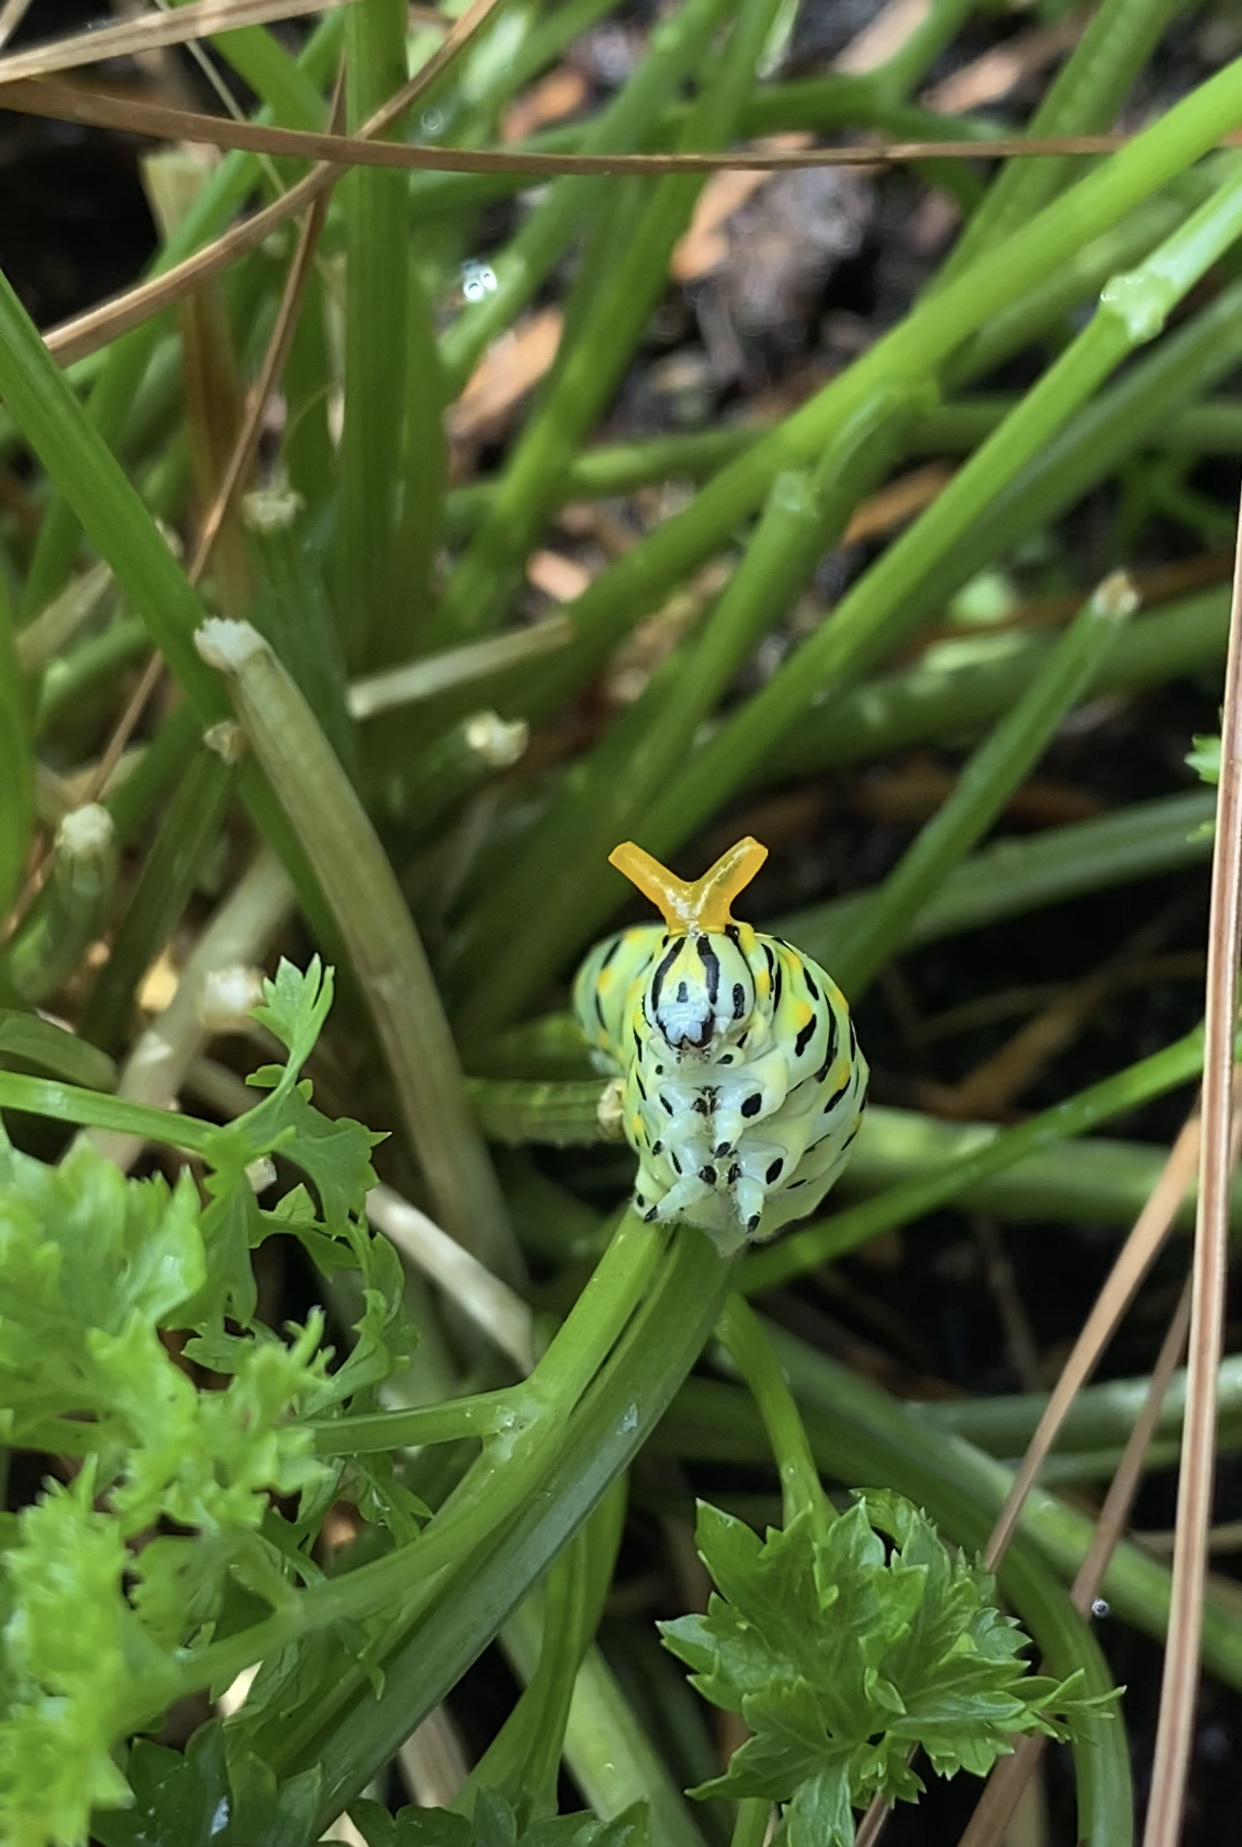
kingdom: Animalia
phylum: Arthropoda
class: Insecta
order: Lepidoptera
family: Papilionidae
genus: Papilio
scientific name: Papilio polyxenes
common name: Black swallowtail
